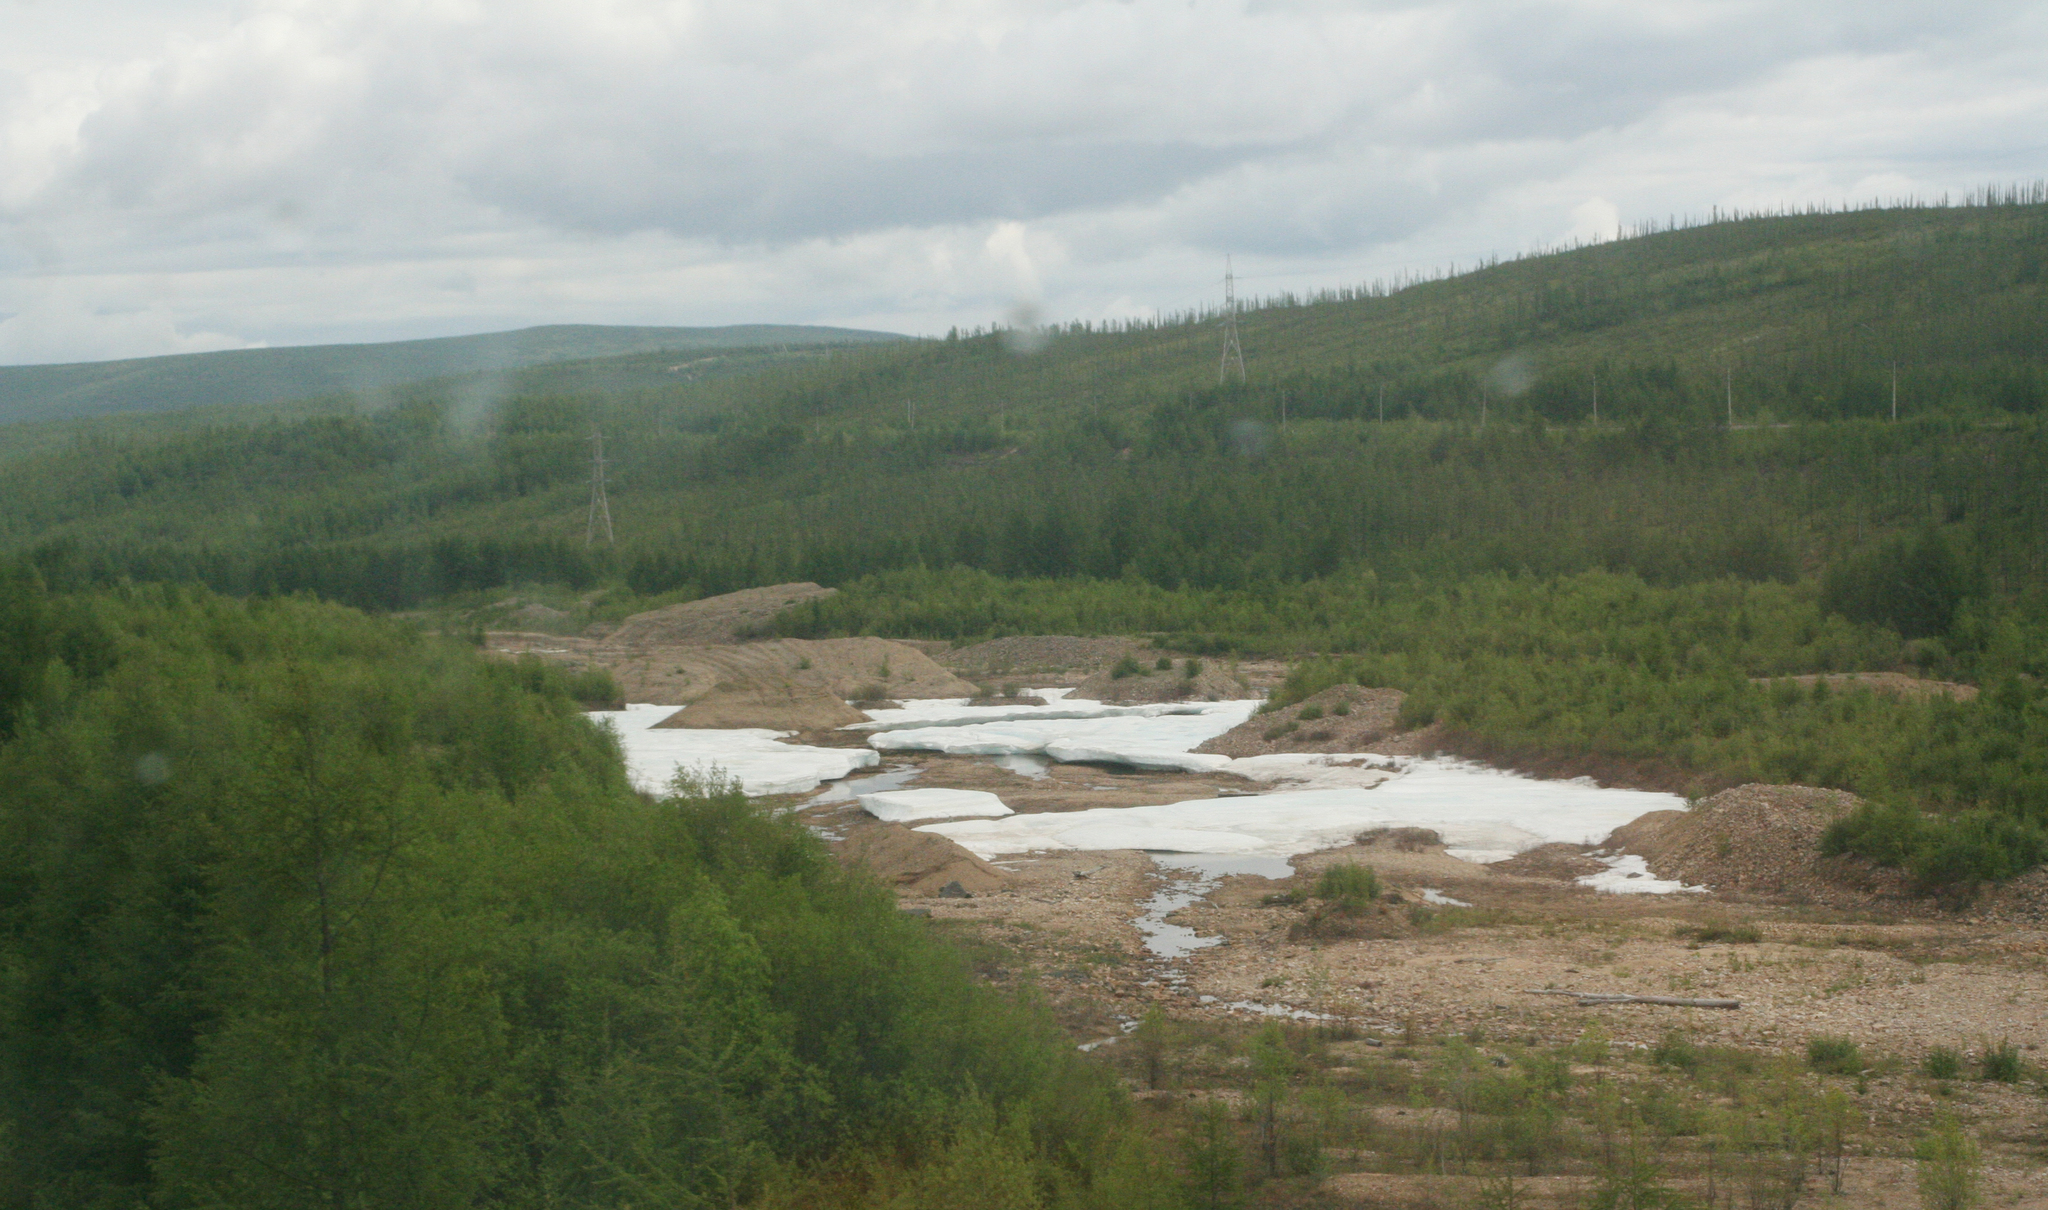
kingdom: Plantae
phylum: Tracheophyta
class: Pinopsida
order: Pinales
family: Pinaceae
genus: Larix
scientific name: Larix gmelinii
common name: Dahurian larch
